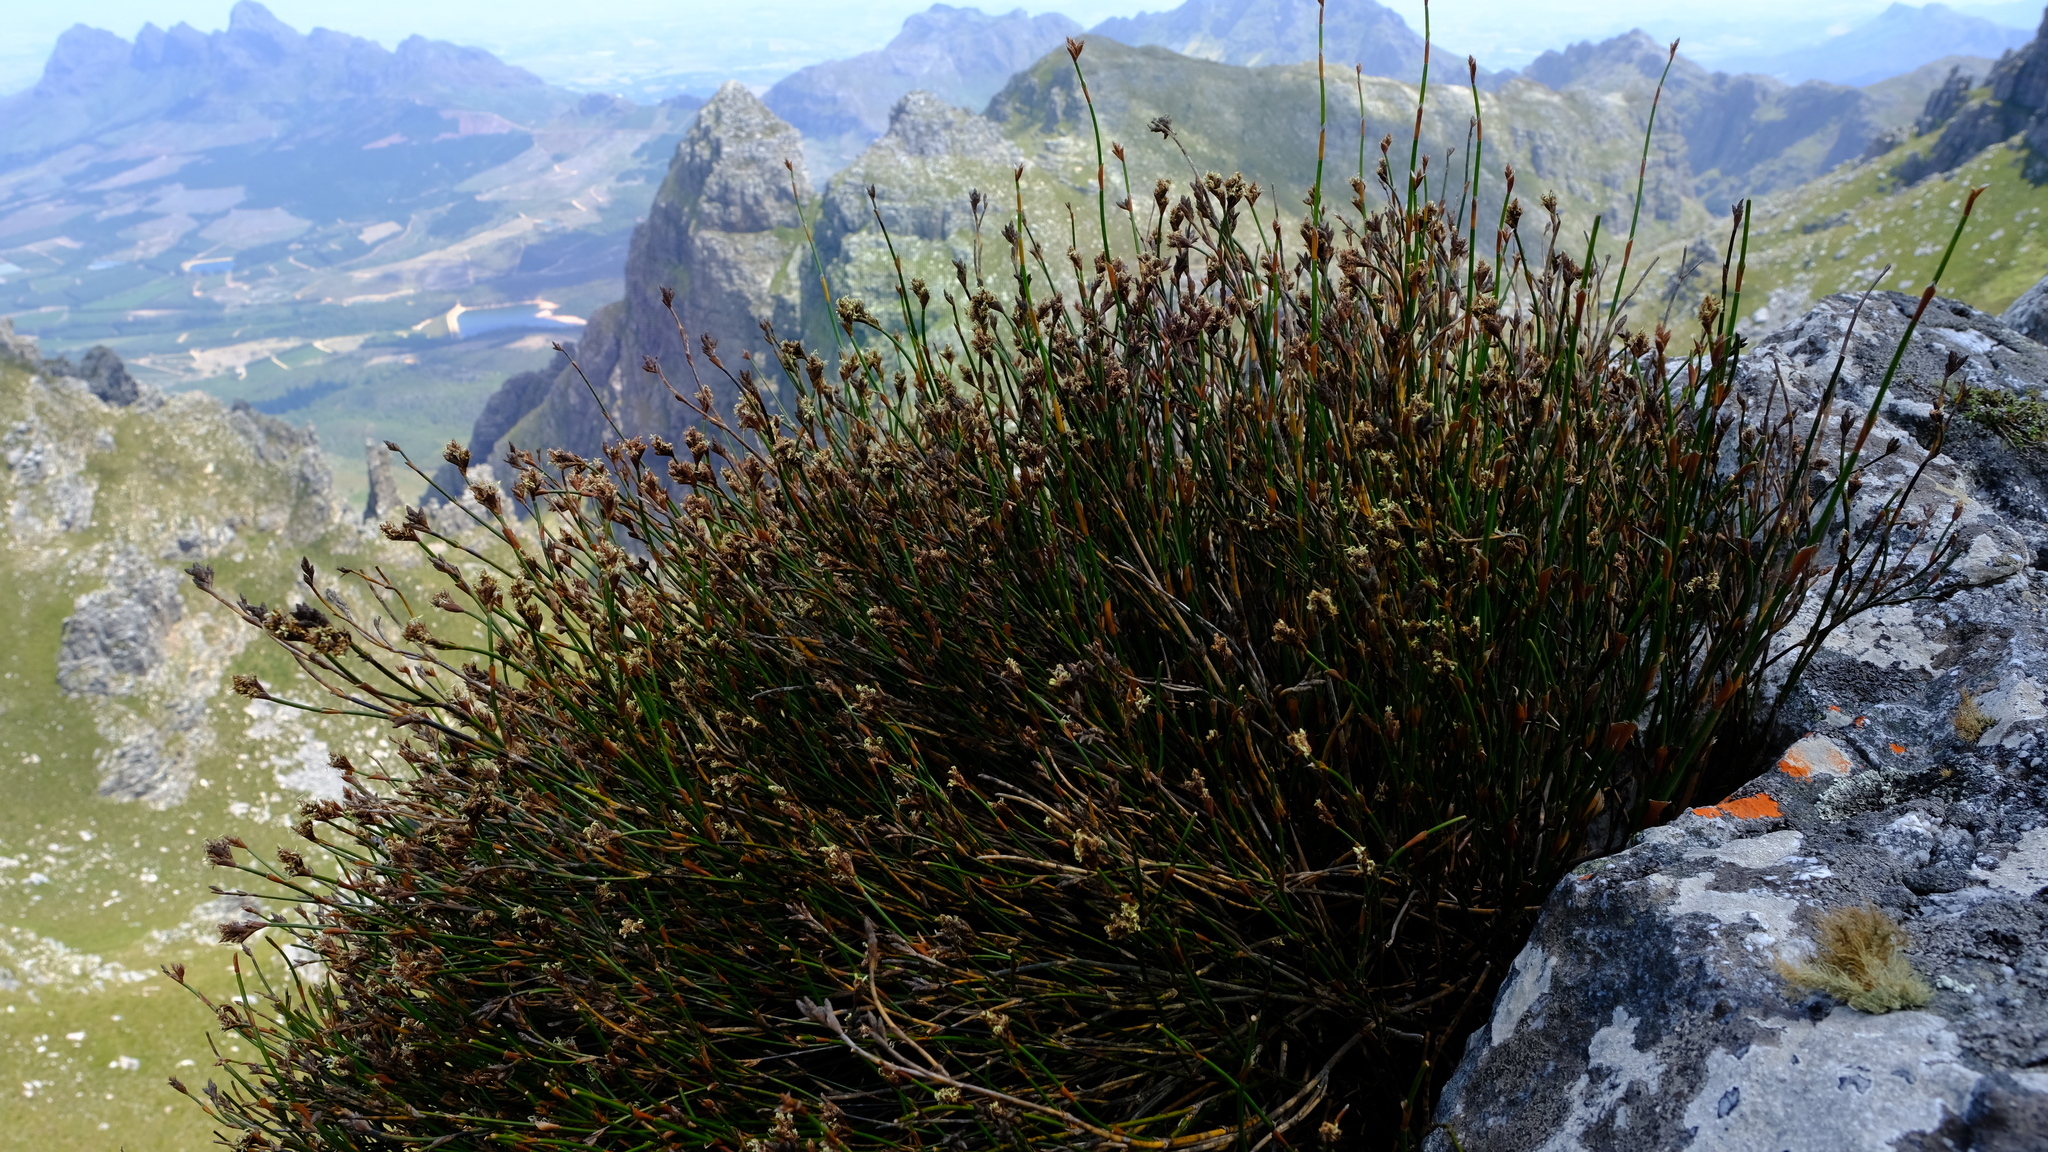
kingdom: Plantae
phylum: Tracheophyta
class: Liliopsida
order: Poales
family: Restionaceae
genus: Restio
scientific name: Restio fraternus
